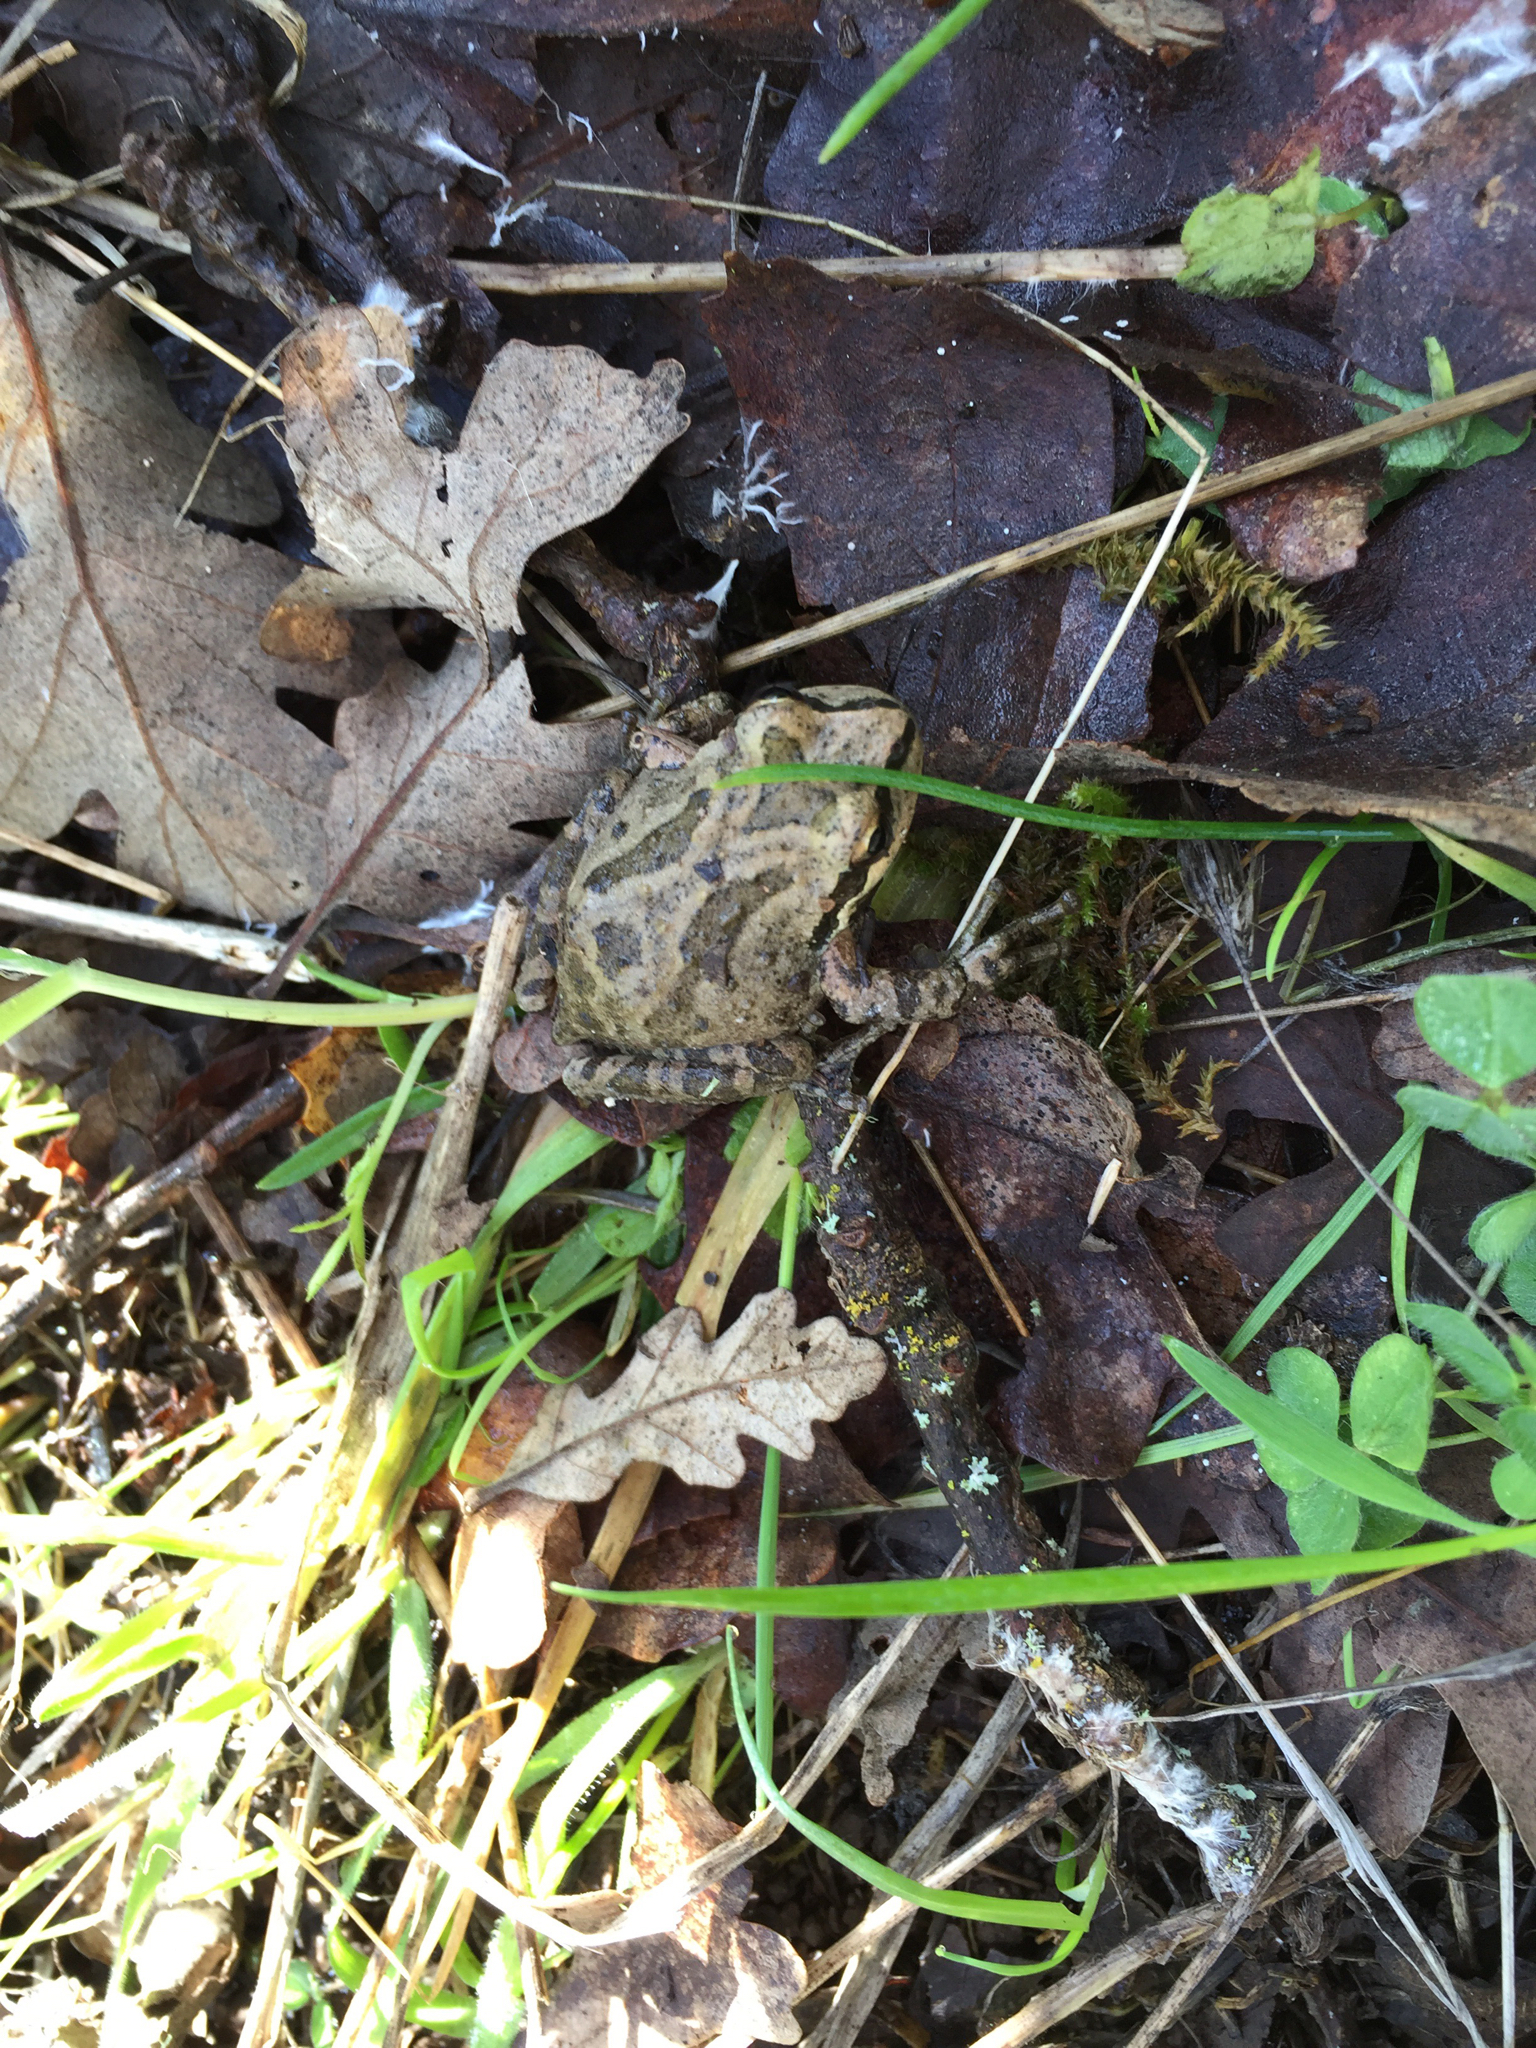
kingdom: Animalia
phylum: Chordata
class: Amphibia
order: Anura
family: Hylidae
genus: Pseudacris
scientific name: Pseudacris regilla
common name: Pacific chorus frog
